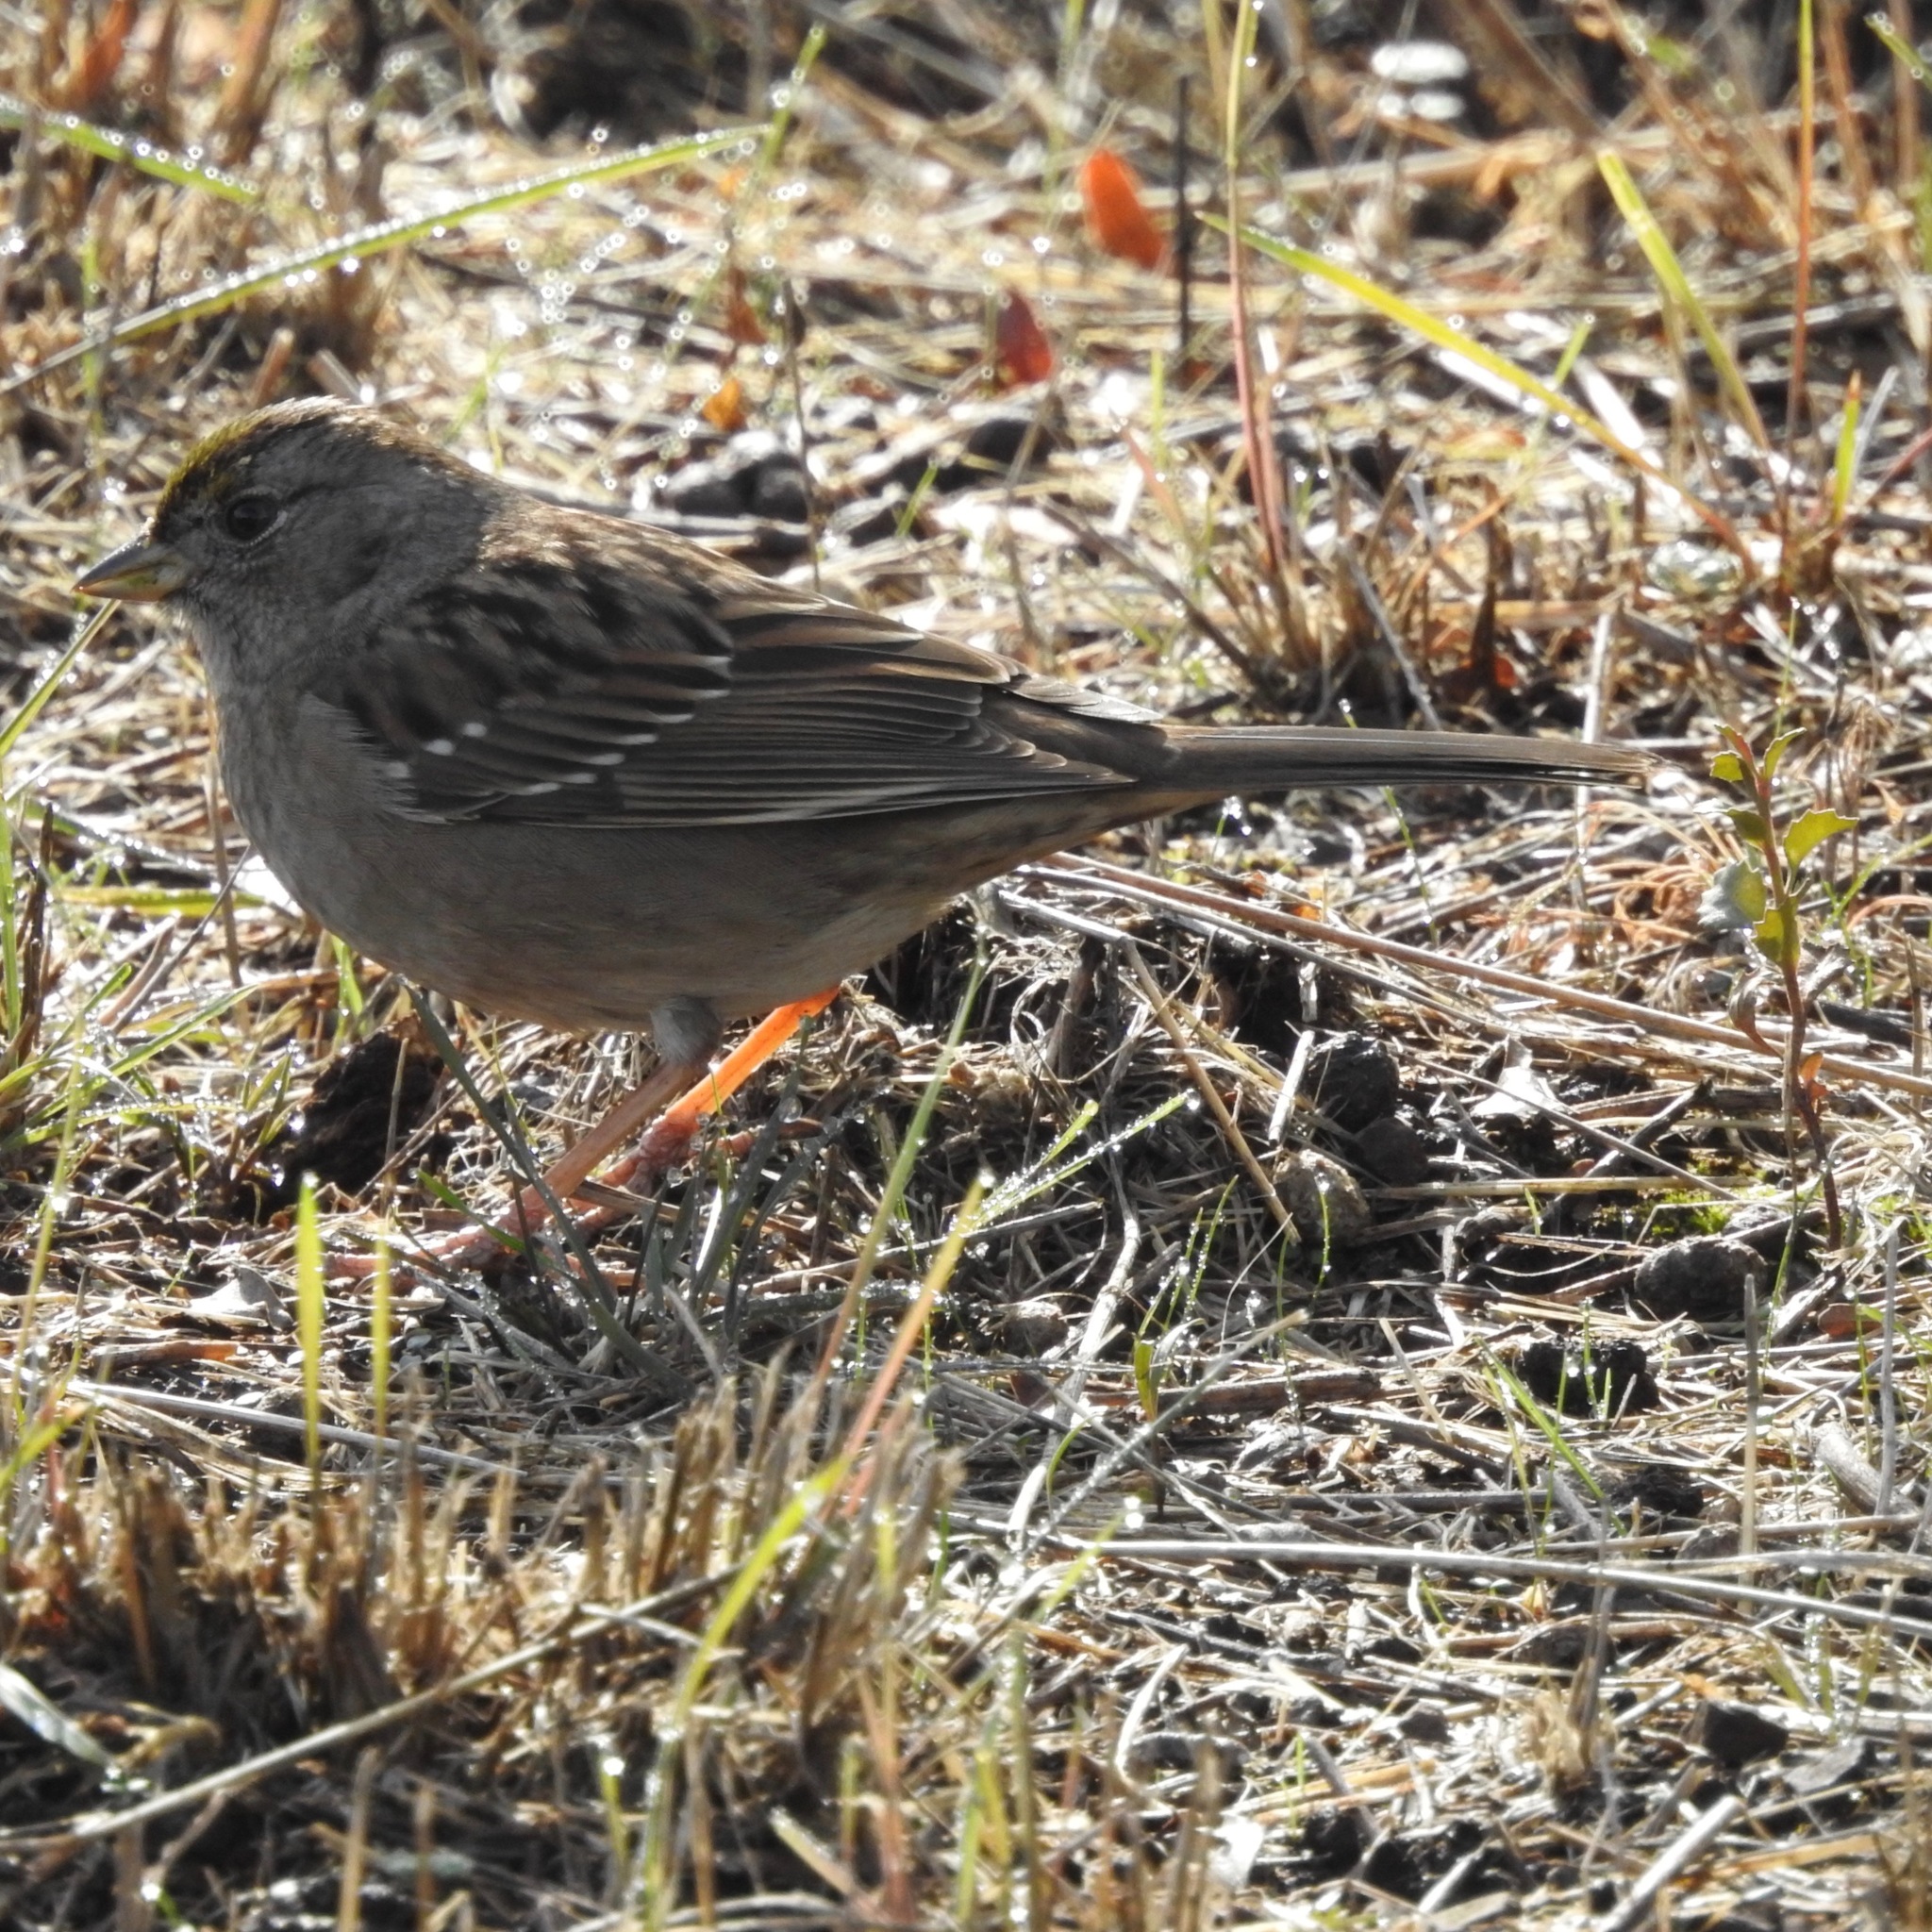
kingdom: Animalia
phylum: Chordata
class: Aves
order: Passeriformes
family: Passerellidae
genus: Zonotrichia
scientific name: Zonotrichia atricapilla
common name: Golden-crowned sparrow
